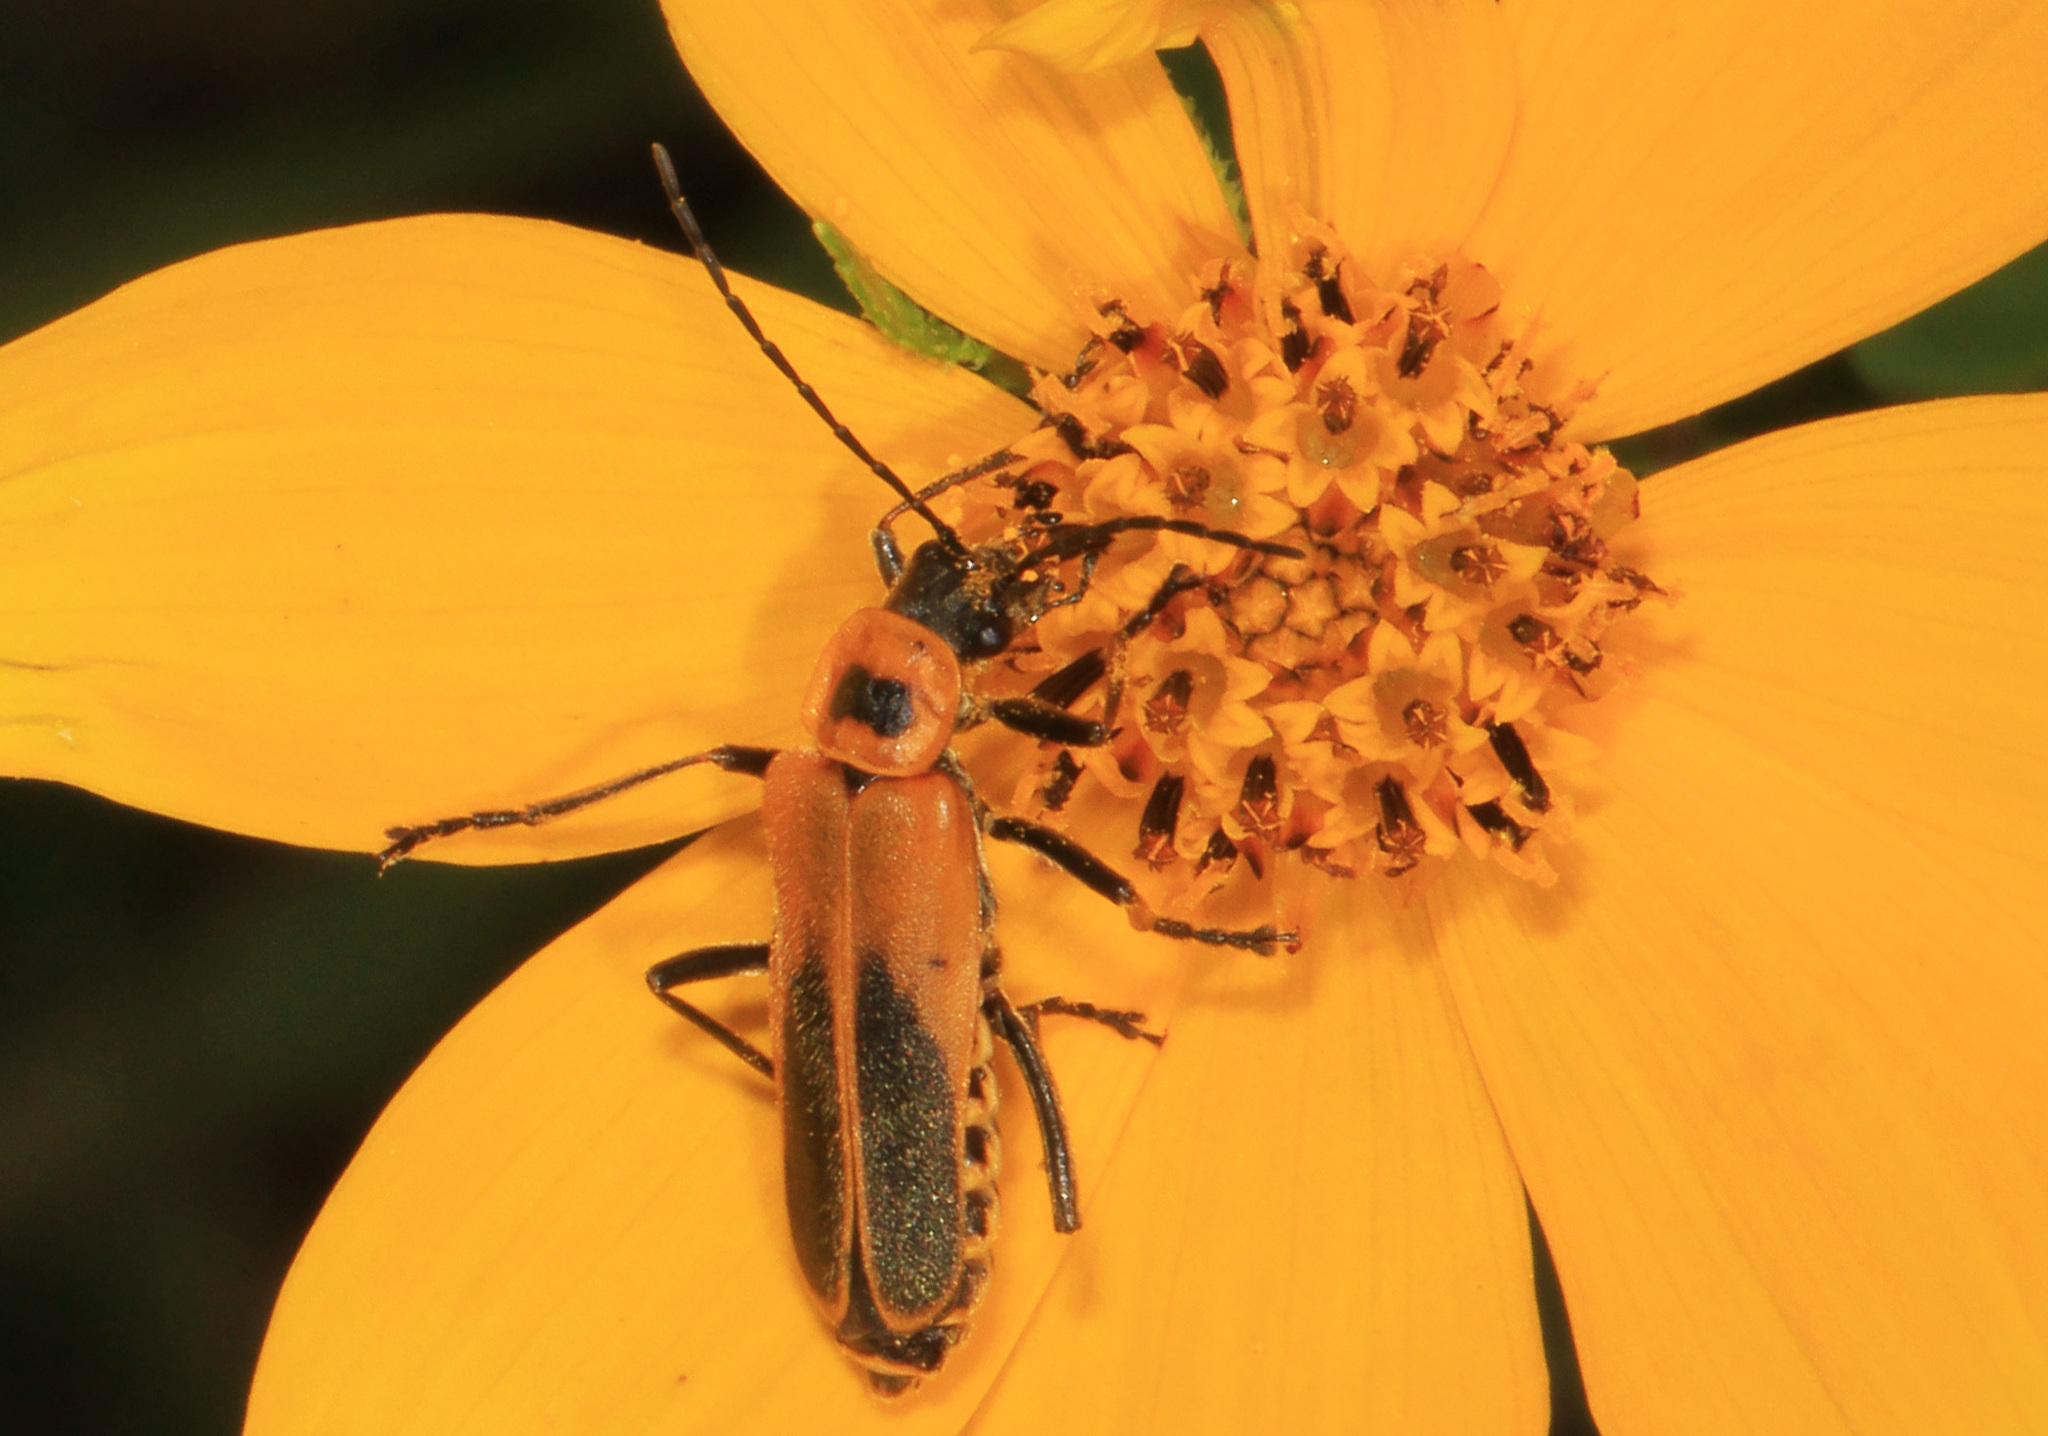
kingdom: Animalia
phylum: Arthropoda
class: Insecta
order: Coleoptera
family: Cantharidae
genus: Chauliognathus
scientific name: Chauliognathus pensylvanicus
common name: Goldenrod soldier beetle
